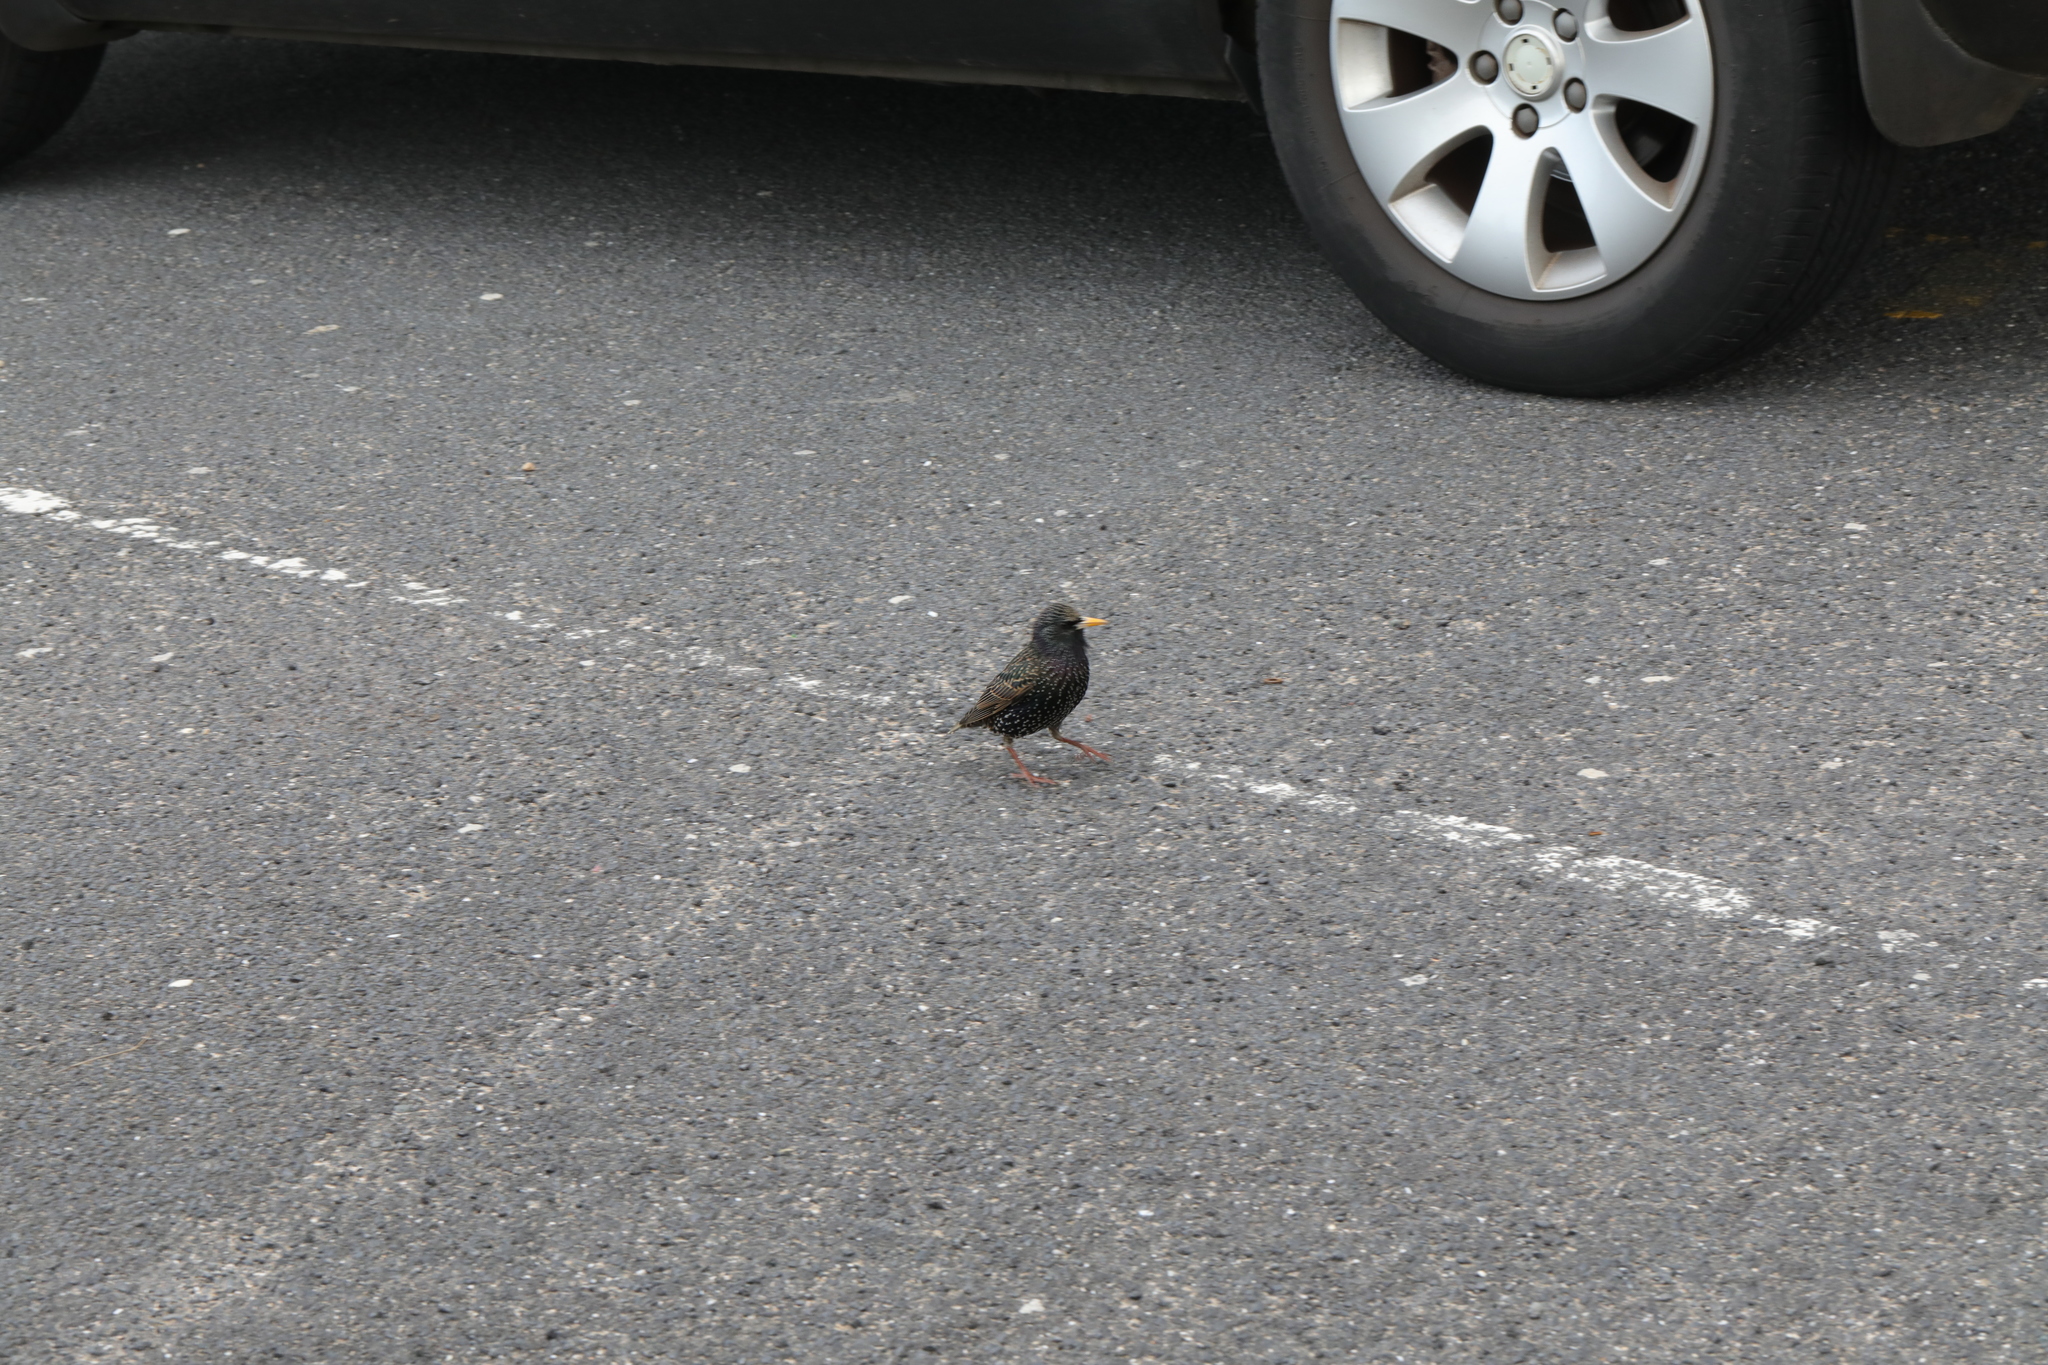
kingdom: Animalia
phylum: Chordata
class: Aves
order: Passeriformes
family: Sturnidae
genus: Sturnus
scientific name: Sturnus vulgaris
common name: Common starling
